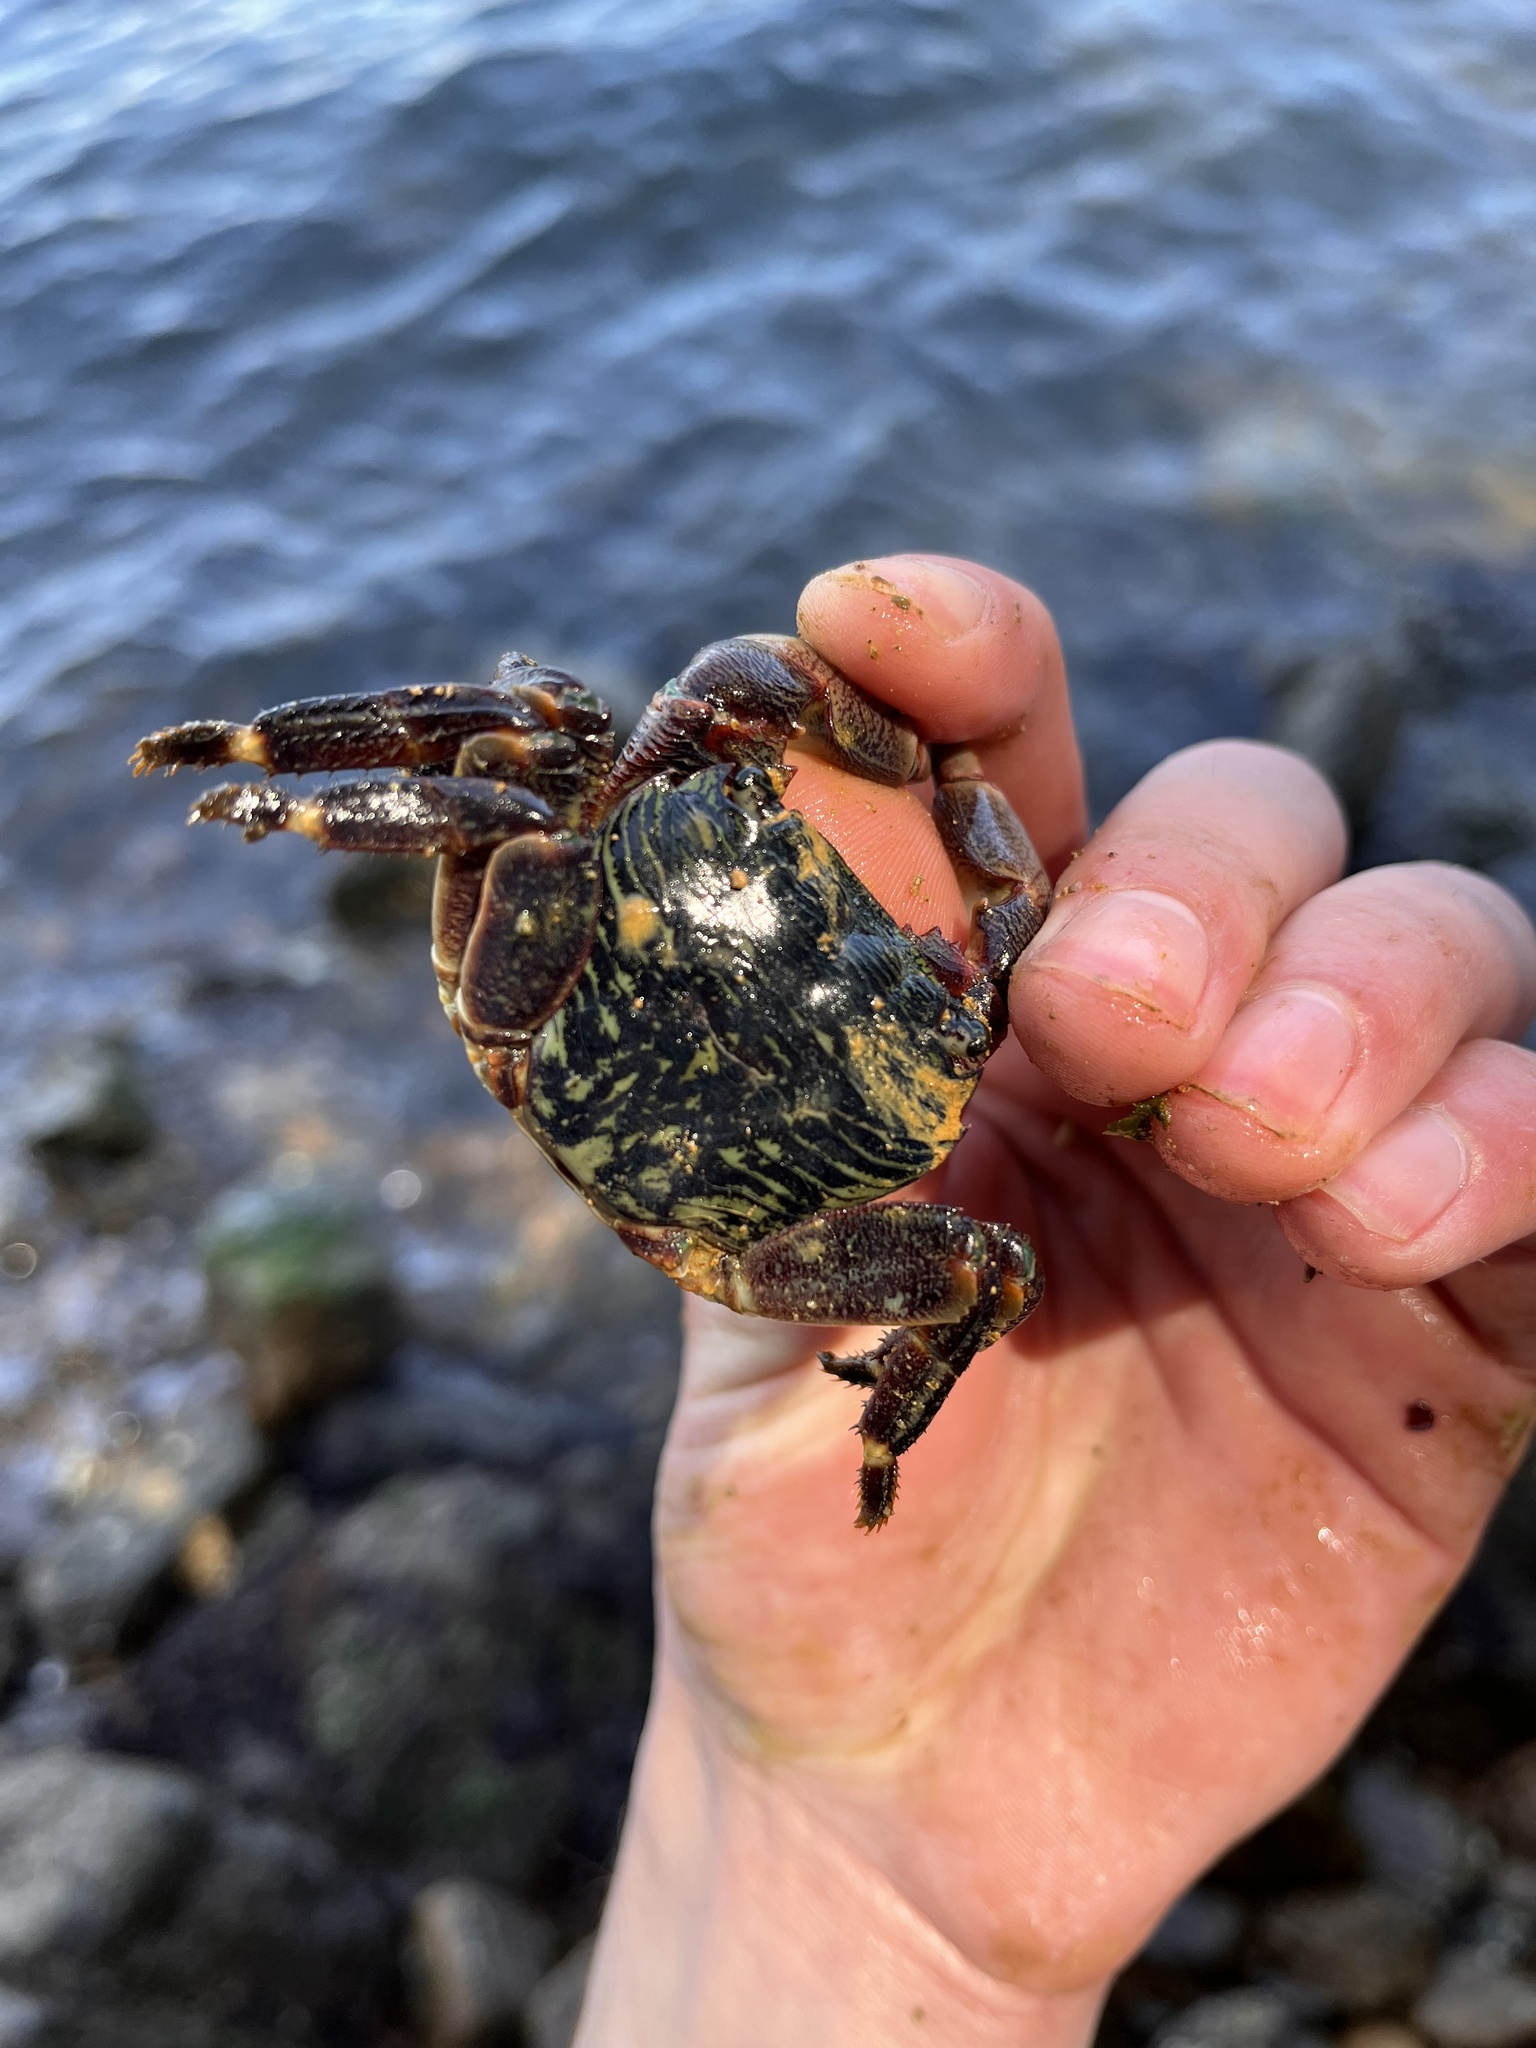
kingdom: Animalia
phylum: Arthropoda
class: Malacostraca
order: Decapoda
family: Grapsidae
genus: Pachygrapsus
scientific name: Pachygrapsus crassipes
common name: Striped shore crab
